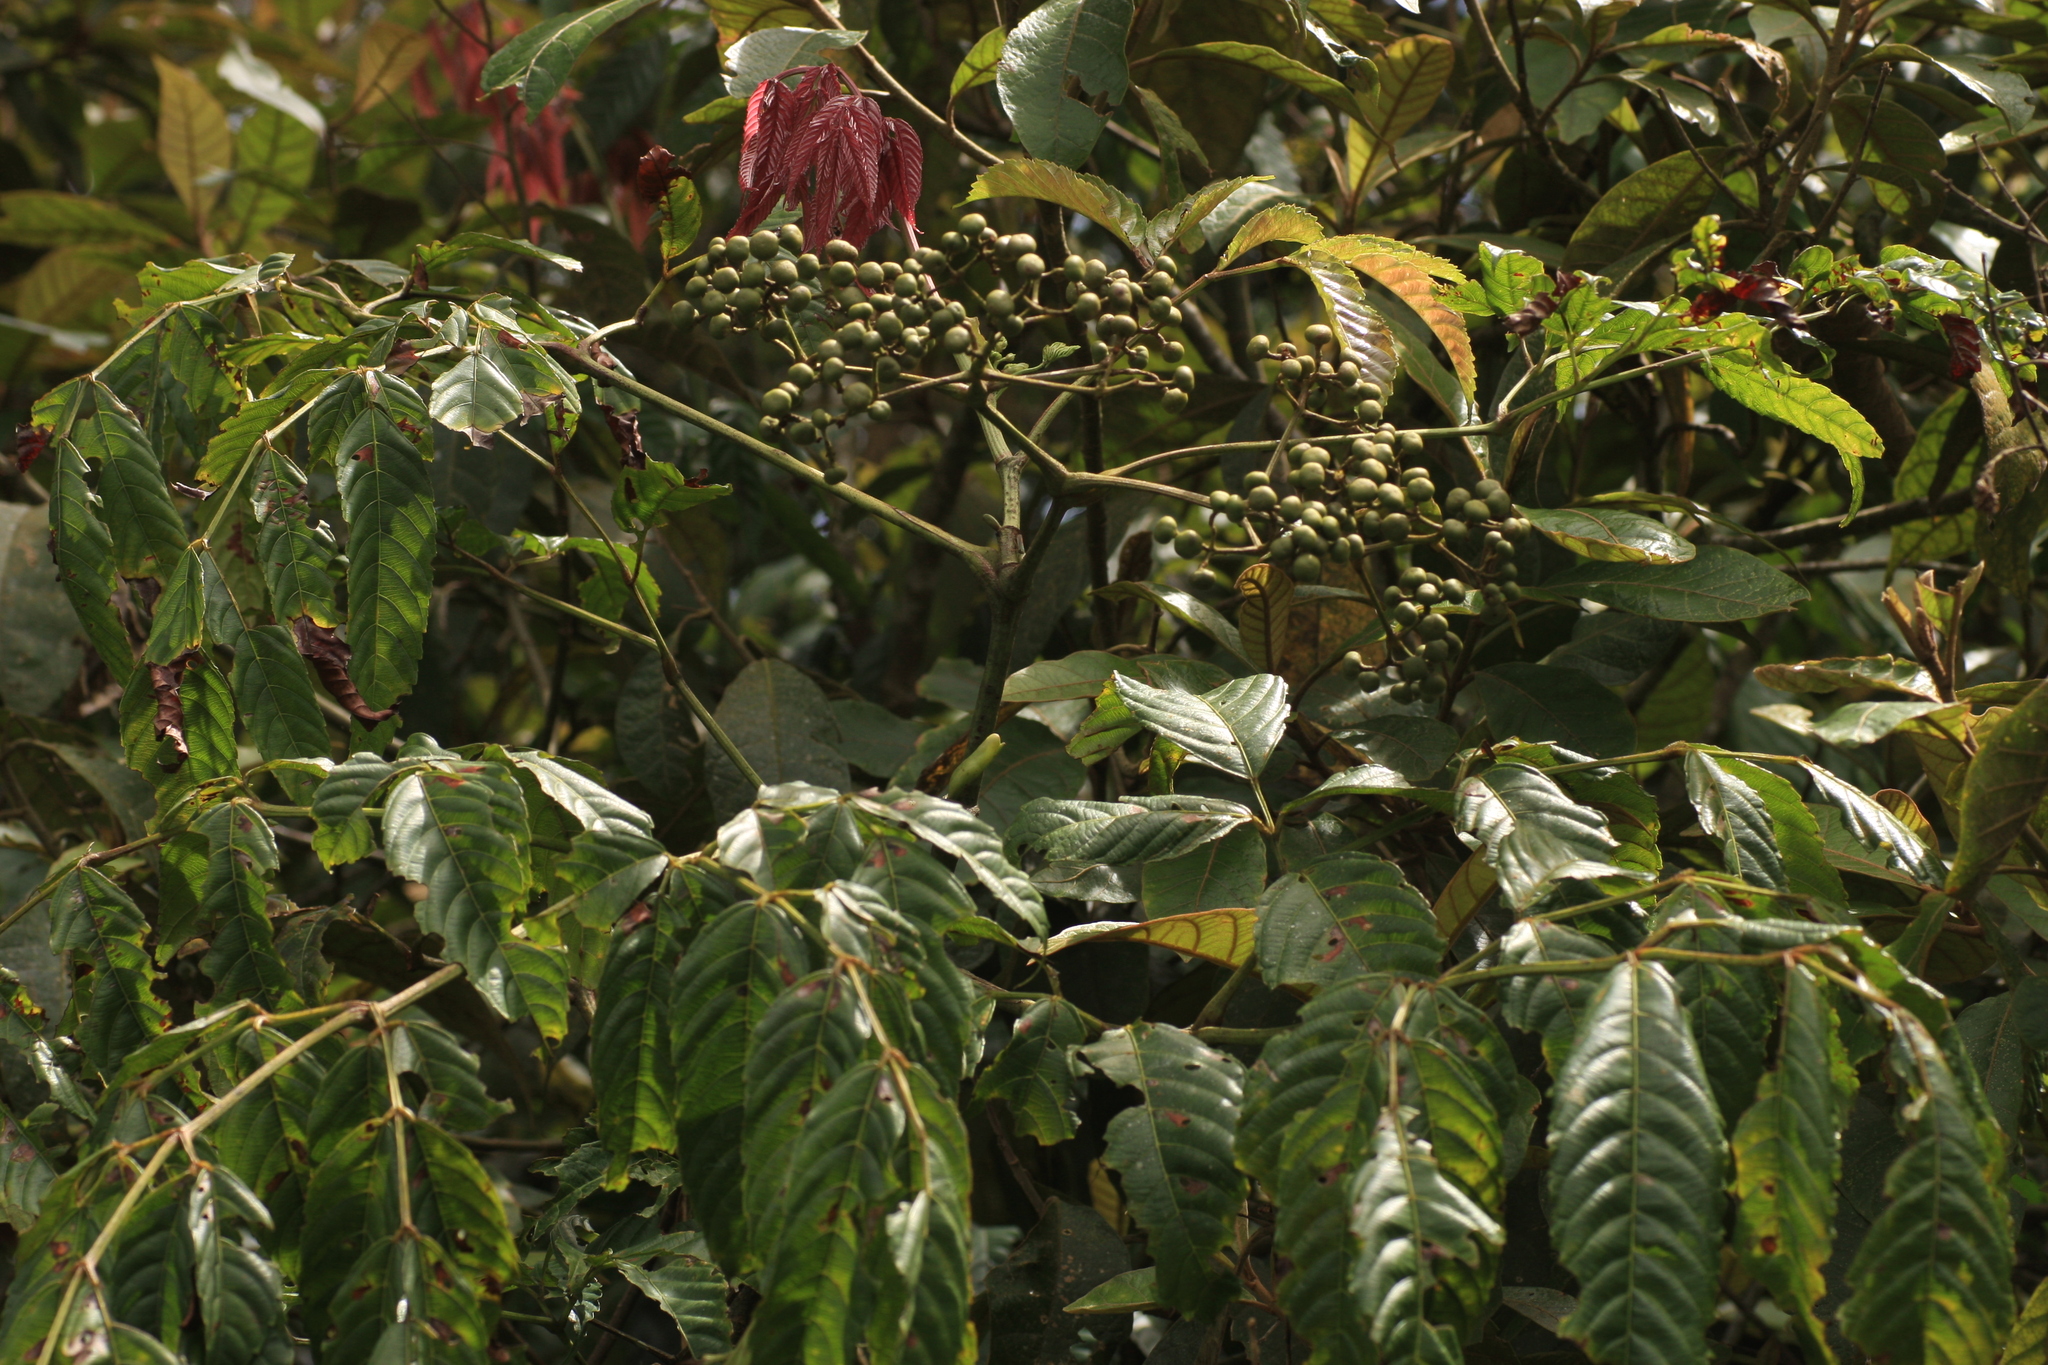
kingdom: Plantae
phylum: Tracheophyta
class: Magnoliopsida
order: Vitales
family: Vitaceae
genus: Leea
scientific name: Leea indica
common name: Bandicoot-berry
